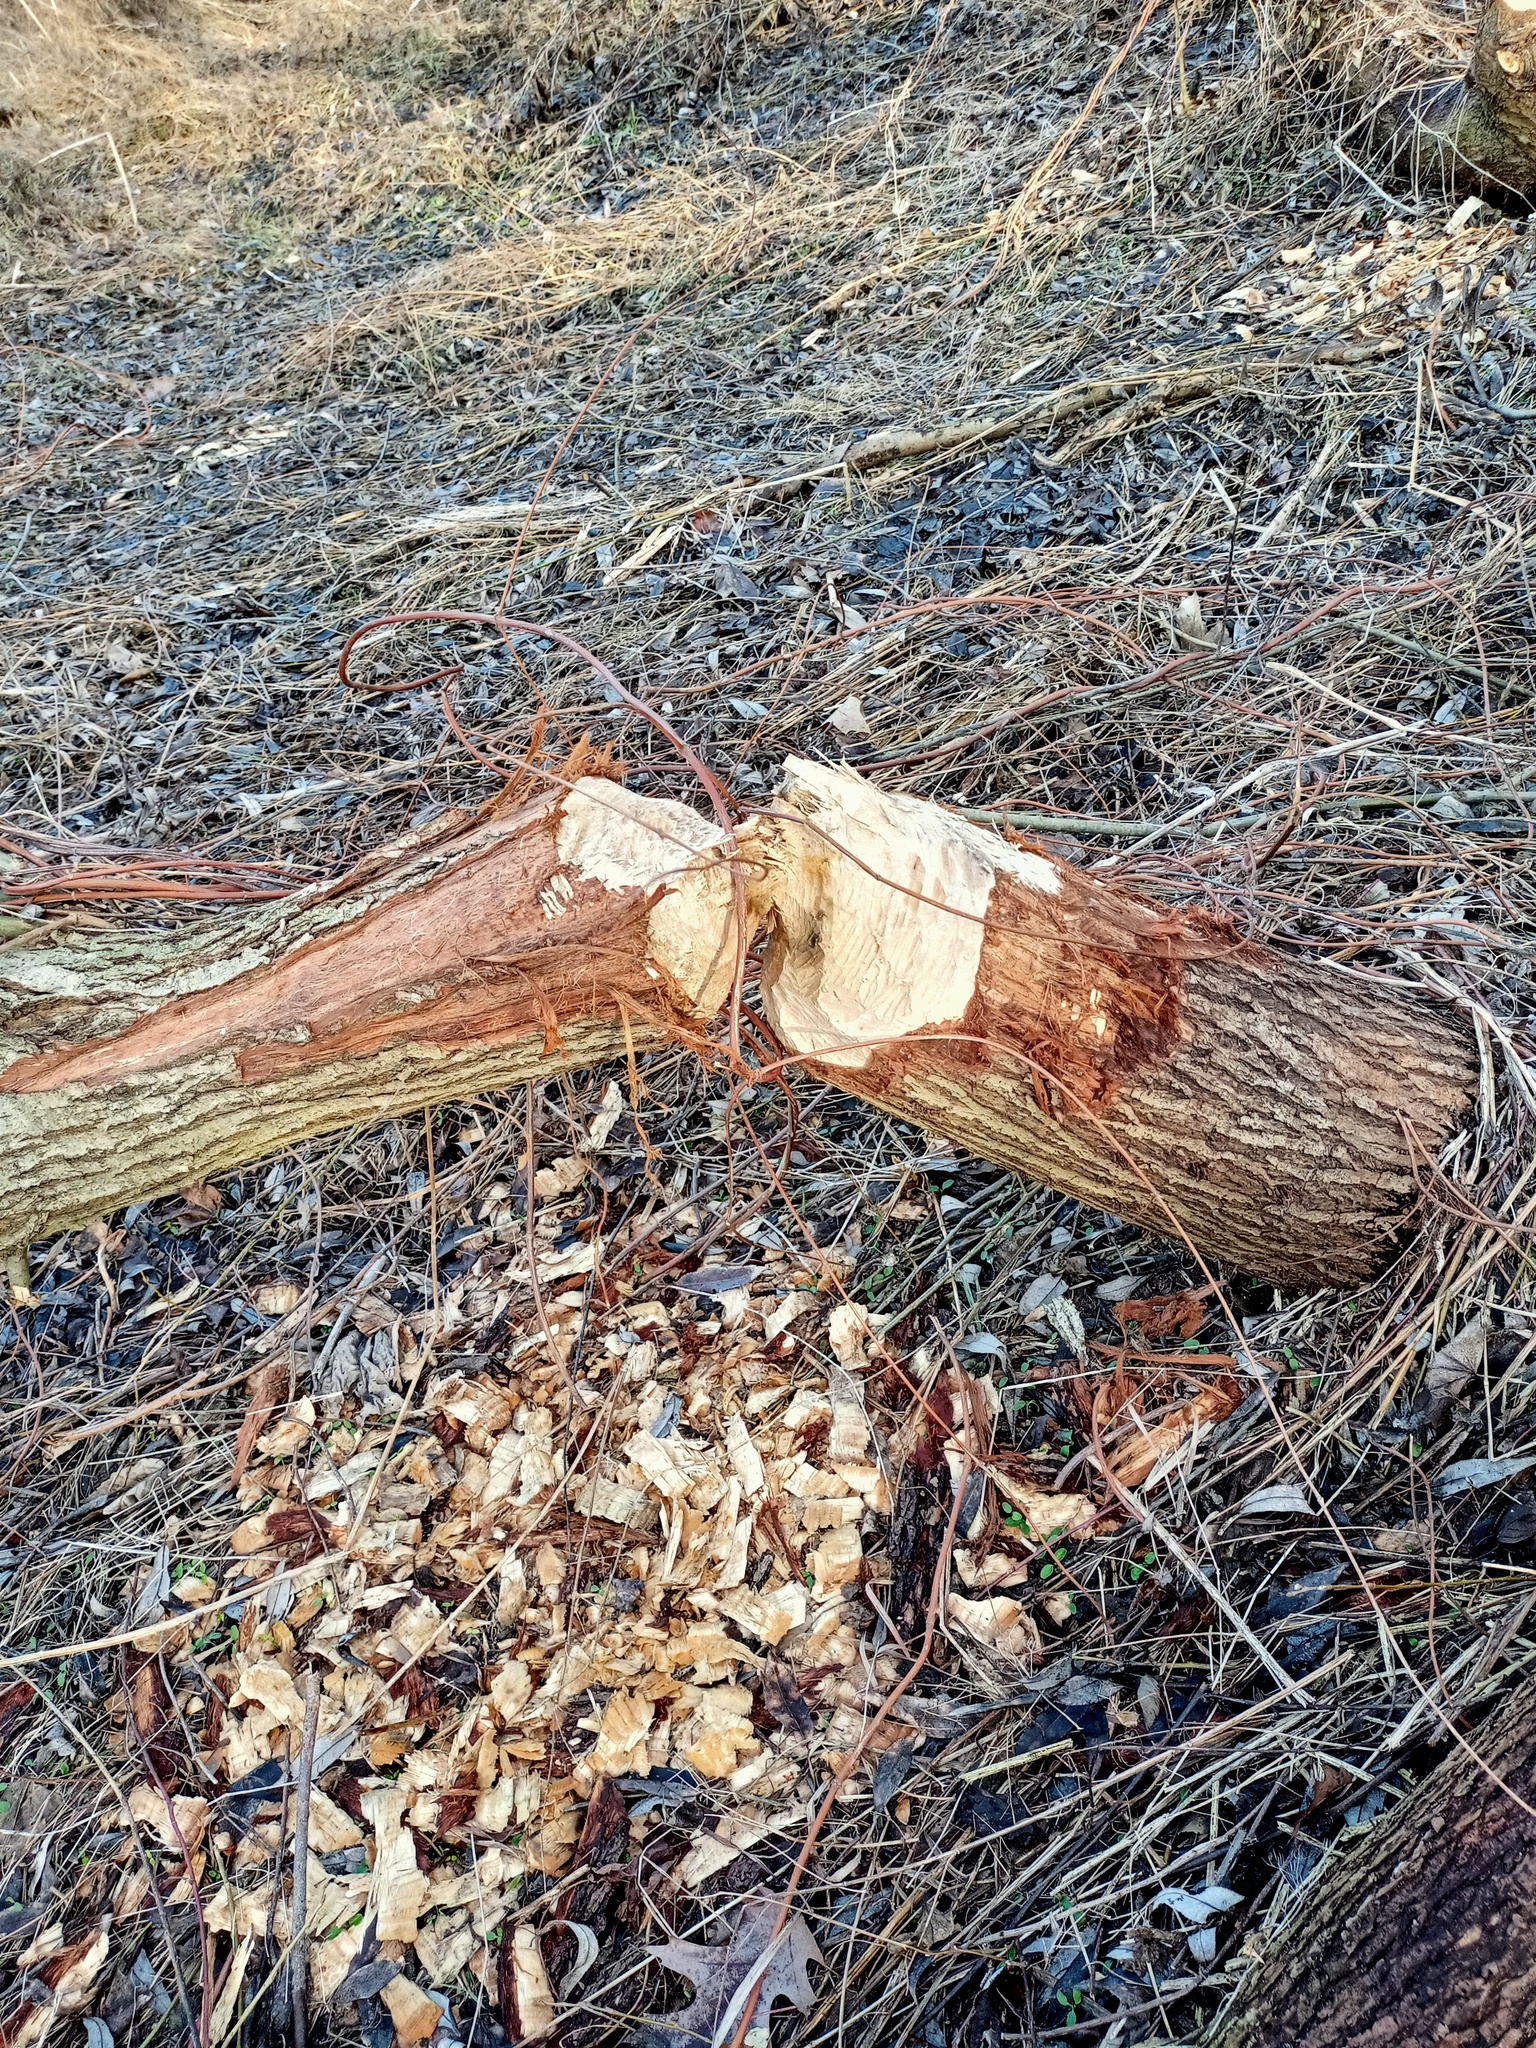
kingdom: Animalia
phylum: Chordata
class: Mammalia
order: Rodentia
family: Castoridae
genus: Castor
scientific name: Castor fiber
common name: Eurasian beaver
